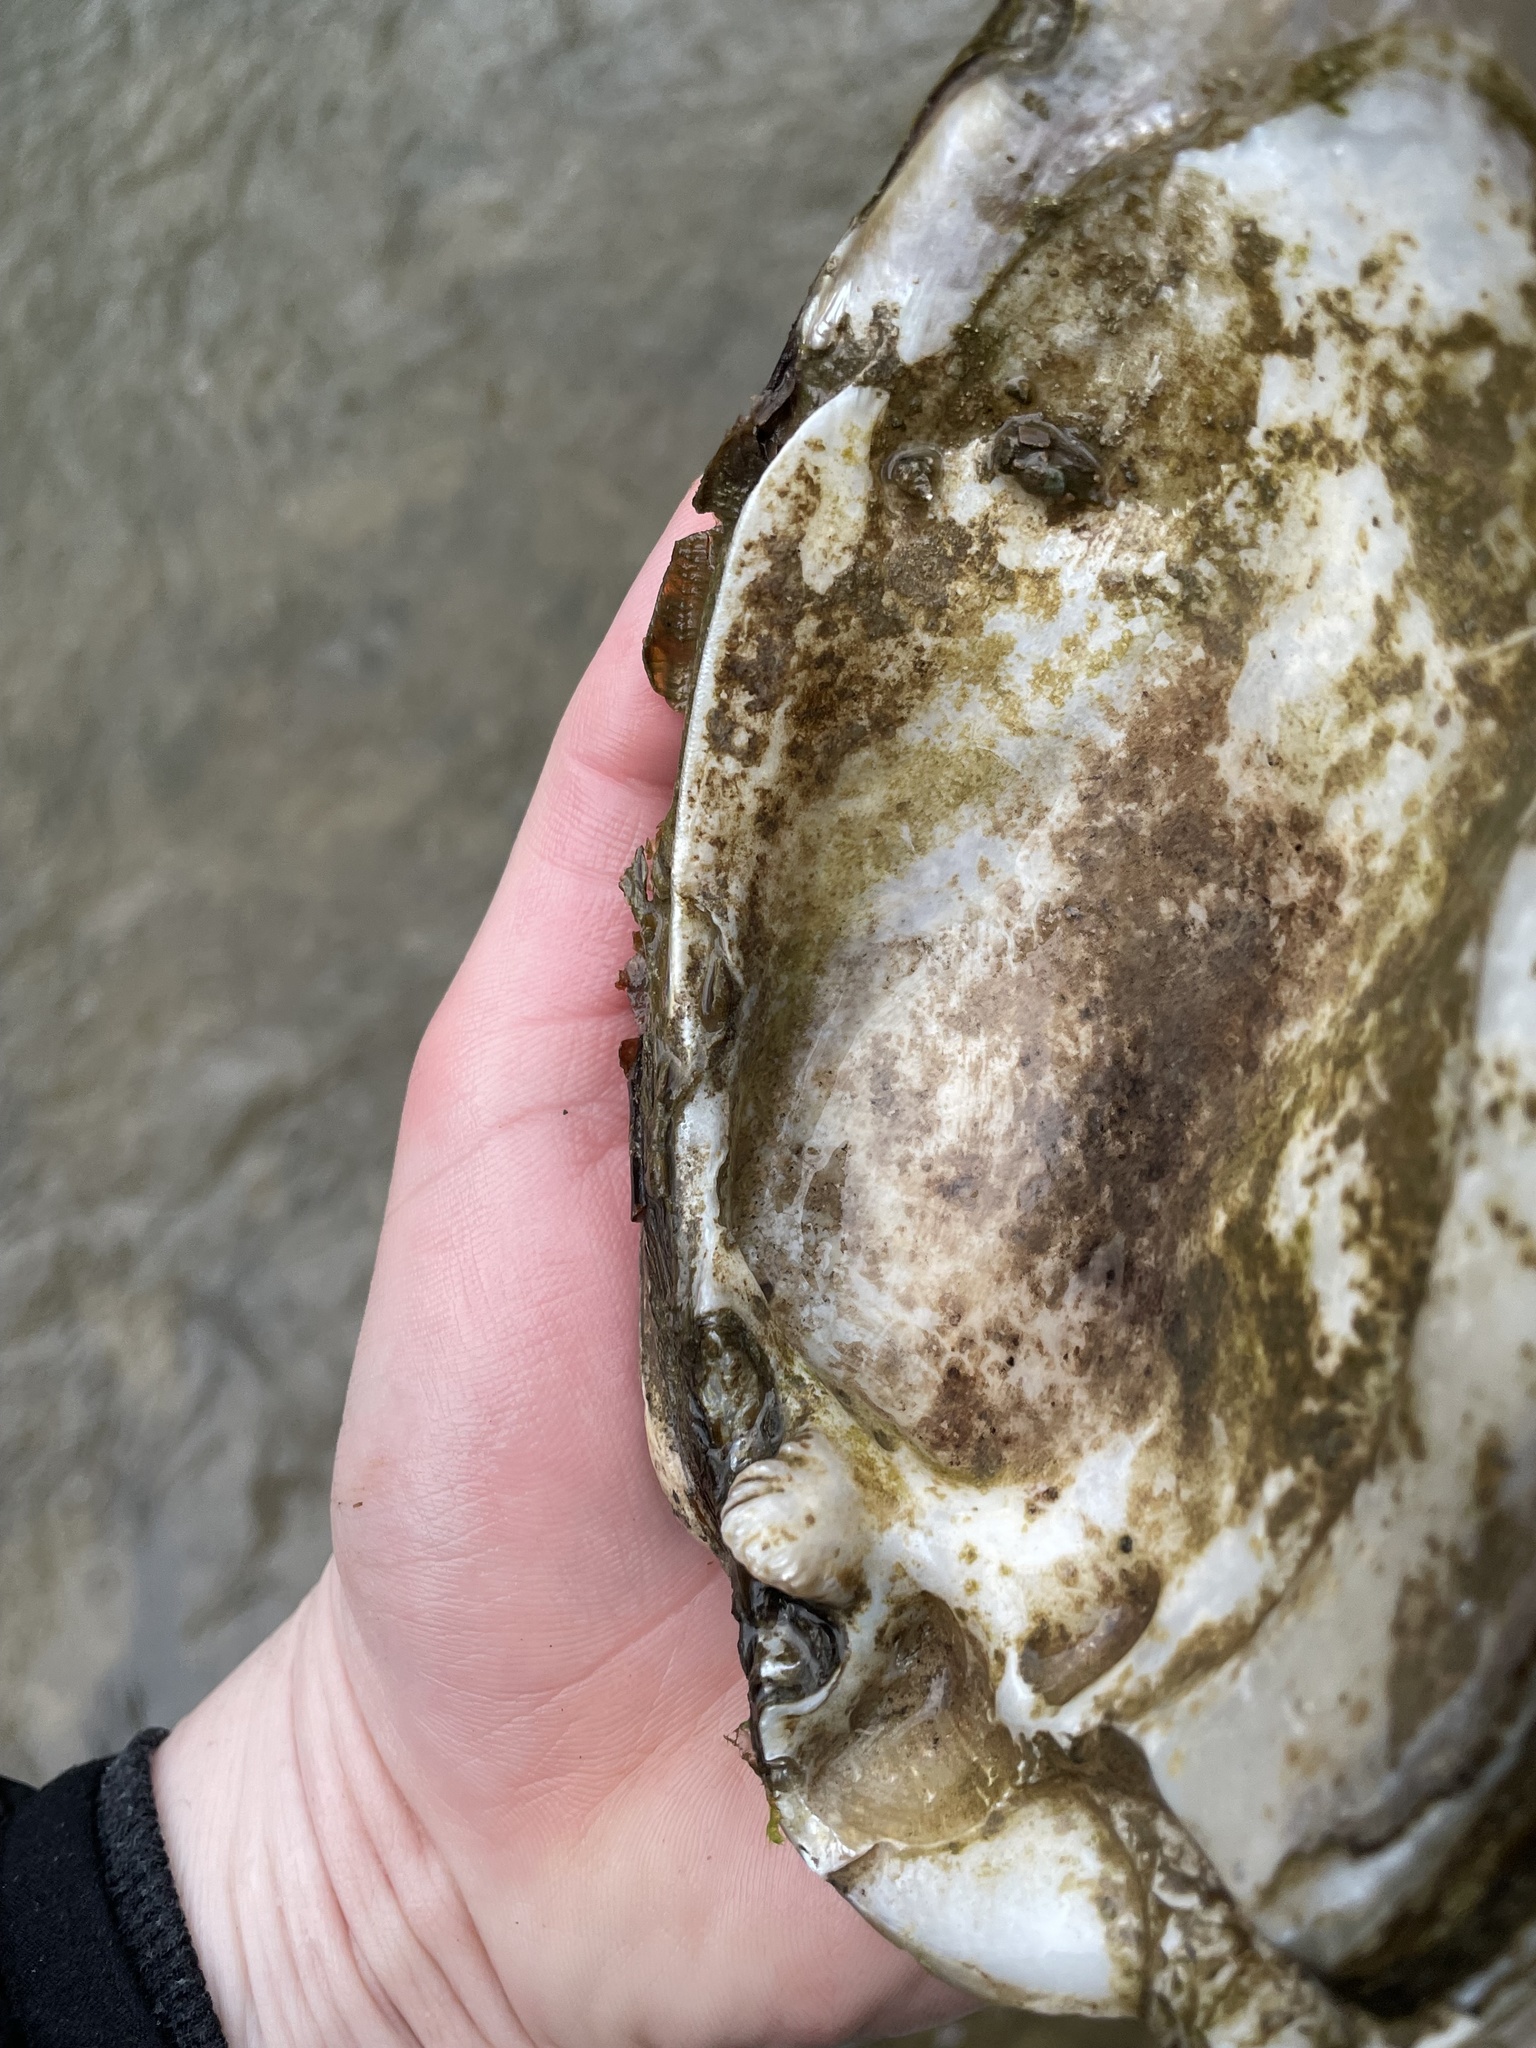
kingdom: Animalia
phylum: Mollusca
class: Bivalvia
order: Unionida
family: Unionidae
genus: Ortmanniana
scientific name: Ortmanniana ligamentina
